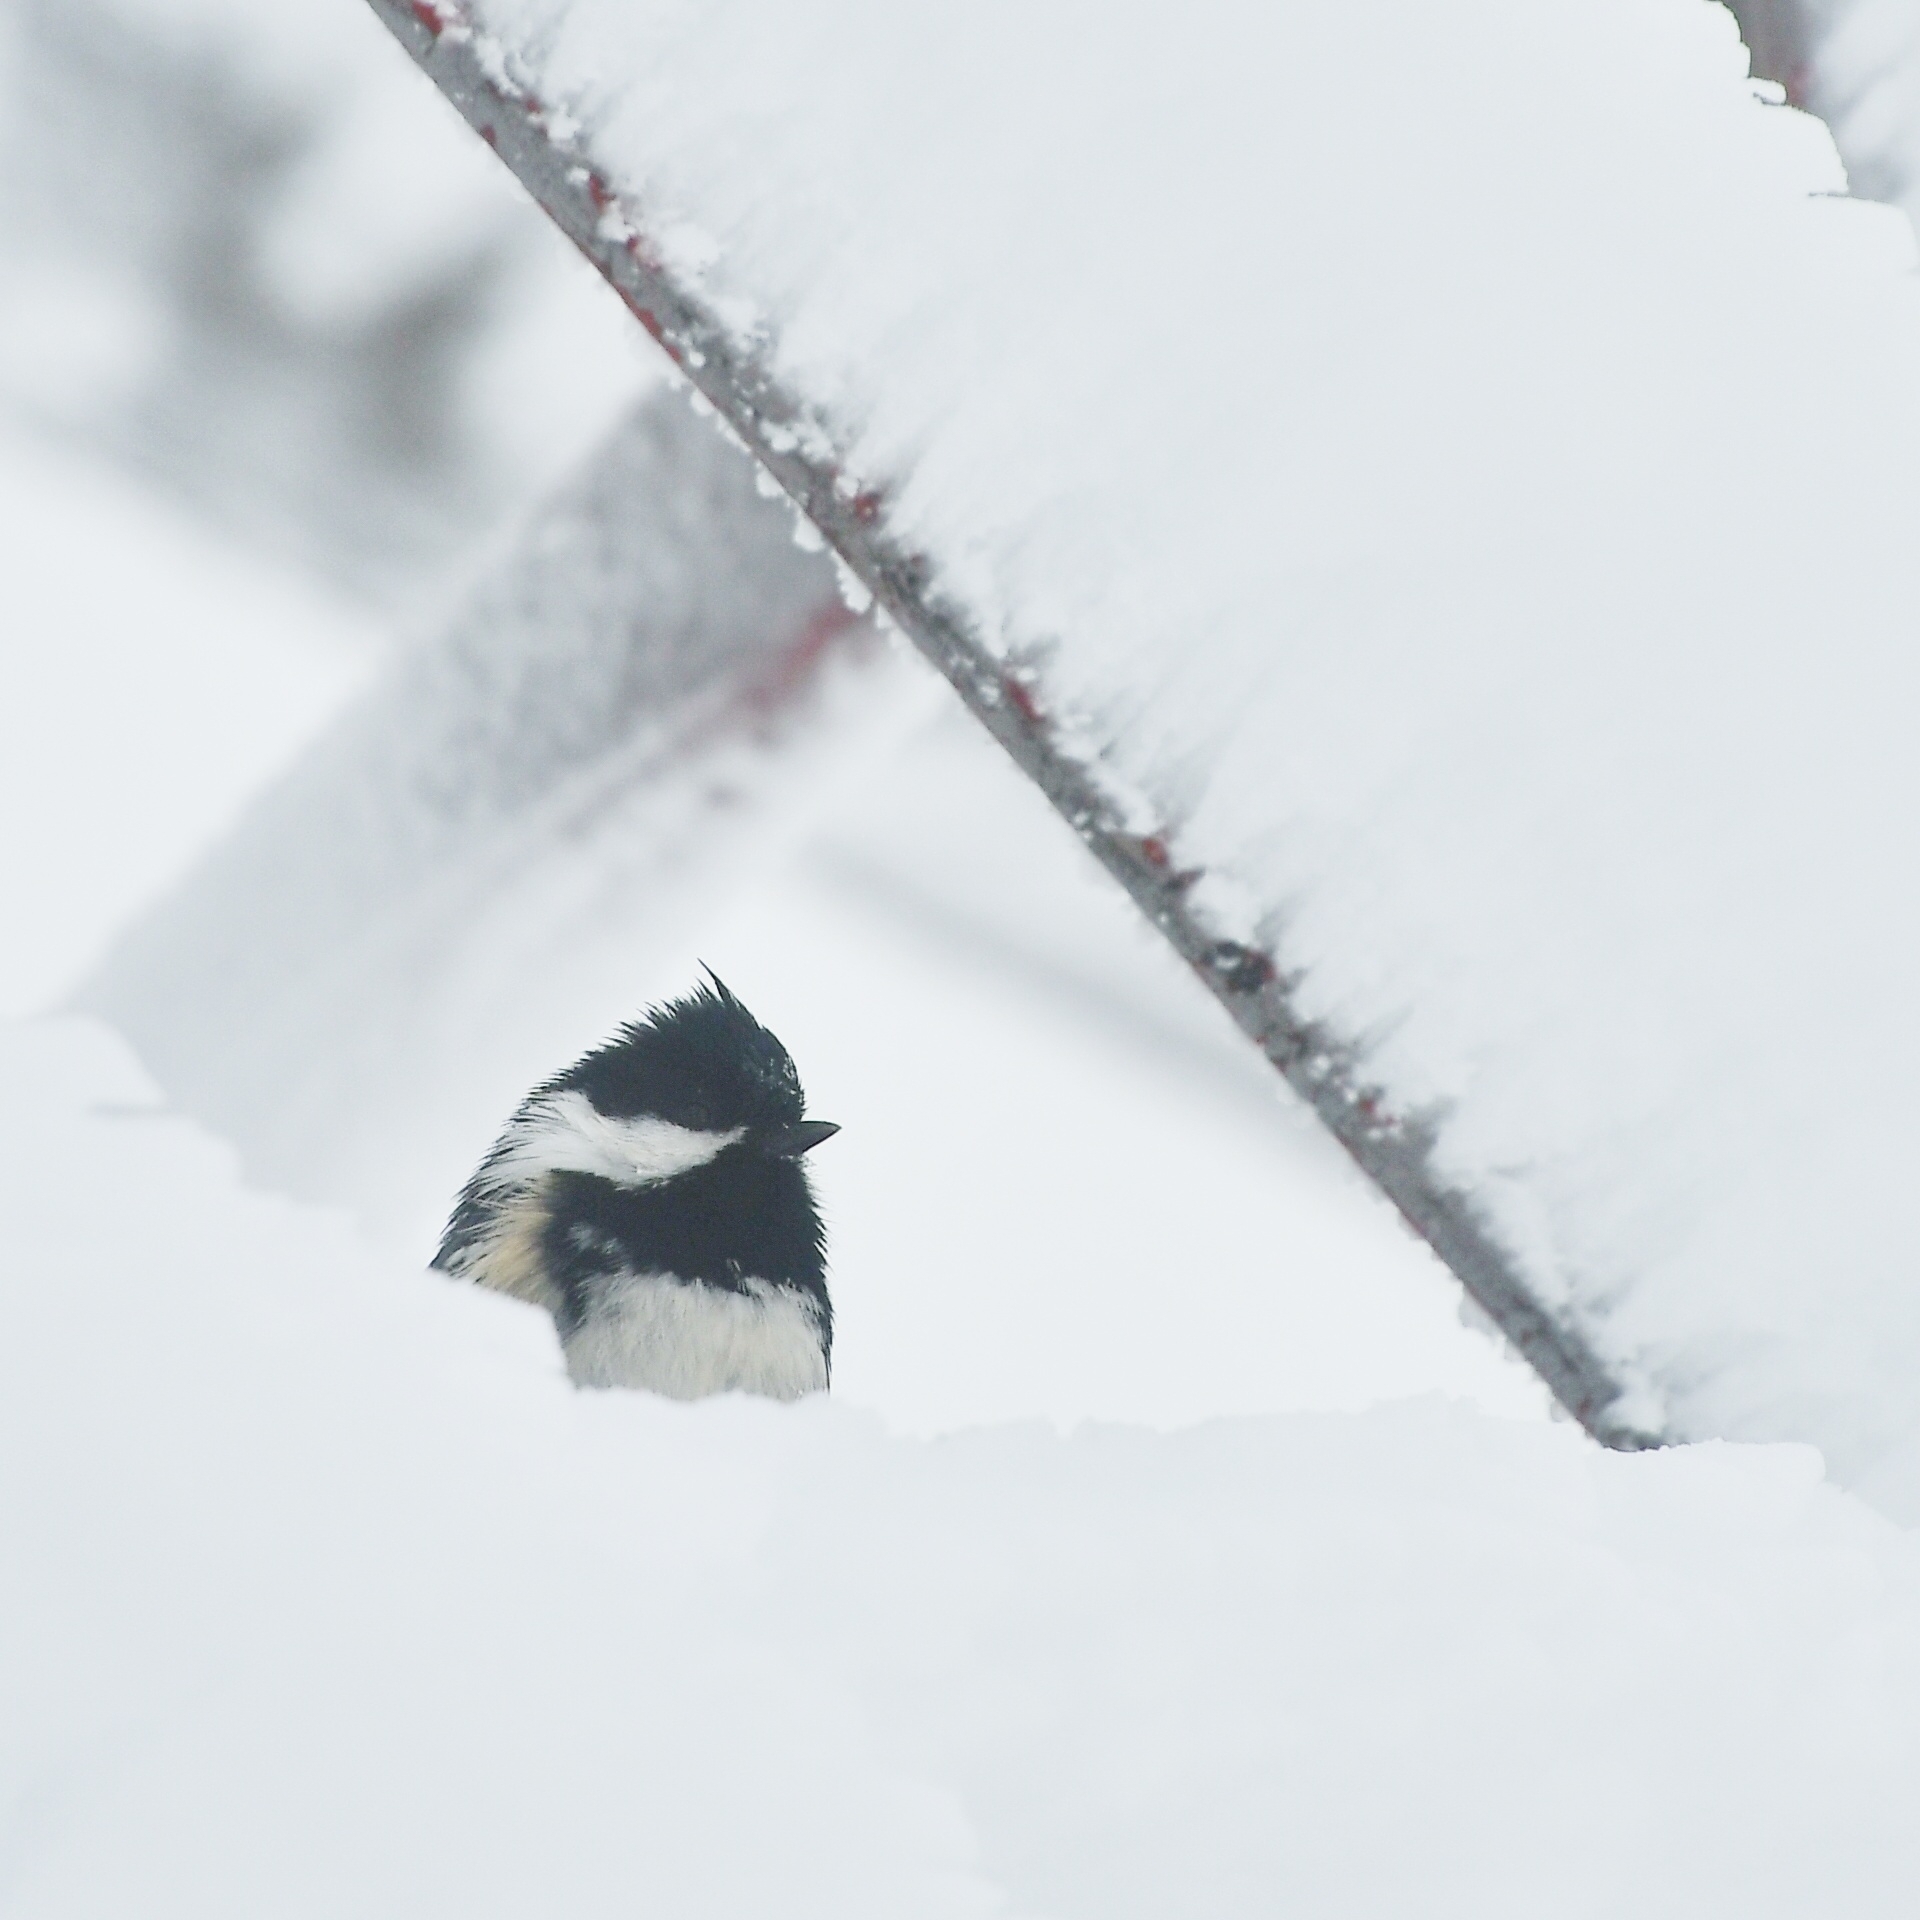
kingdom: Animalia
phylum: Chordata
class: Aves
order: Passeriformes
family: Paridae
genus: Periparus
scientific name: Periparus ater
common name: Coal tit
